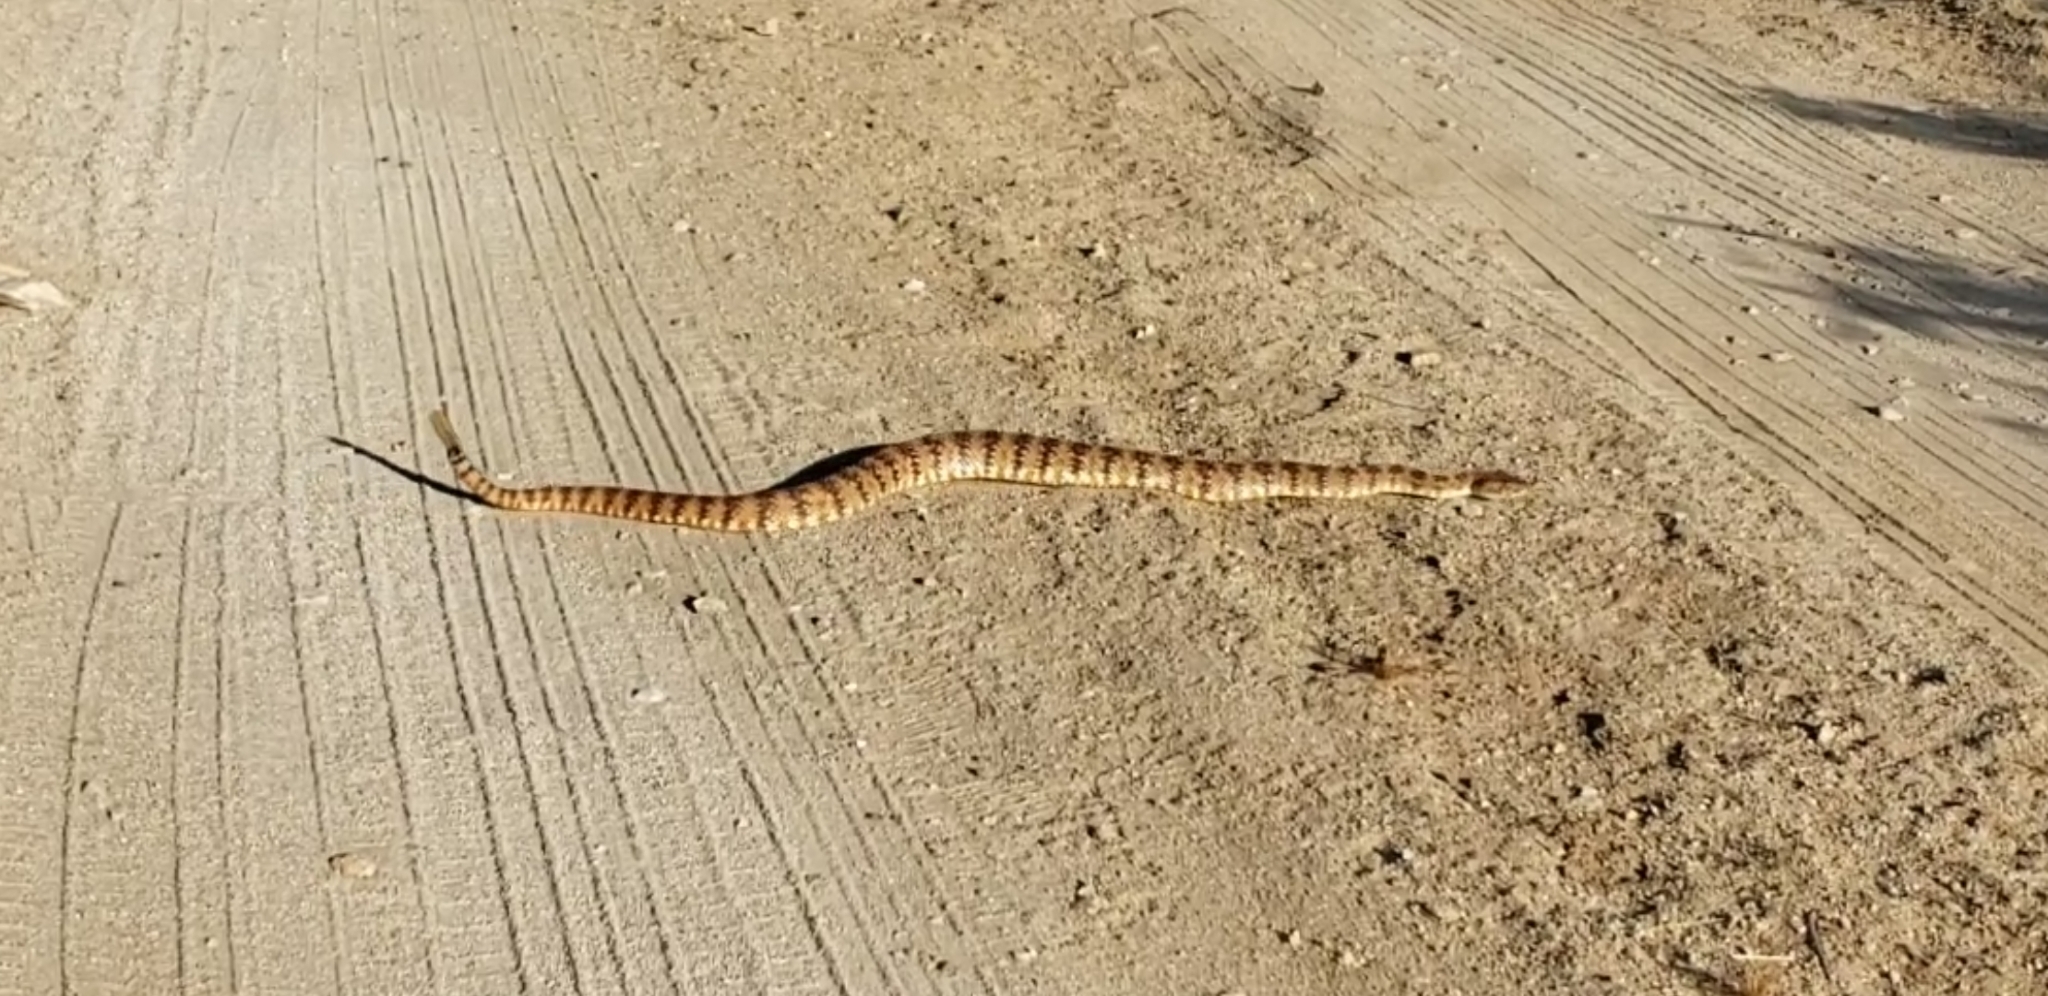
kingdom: Animalia
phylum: Chordata
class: Squamata
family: Viperidae
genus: Crotalus
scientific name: Crotalus pyrrhus
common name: Southwestern speckled rattlesnake
